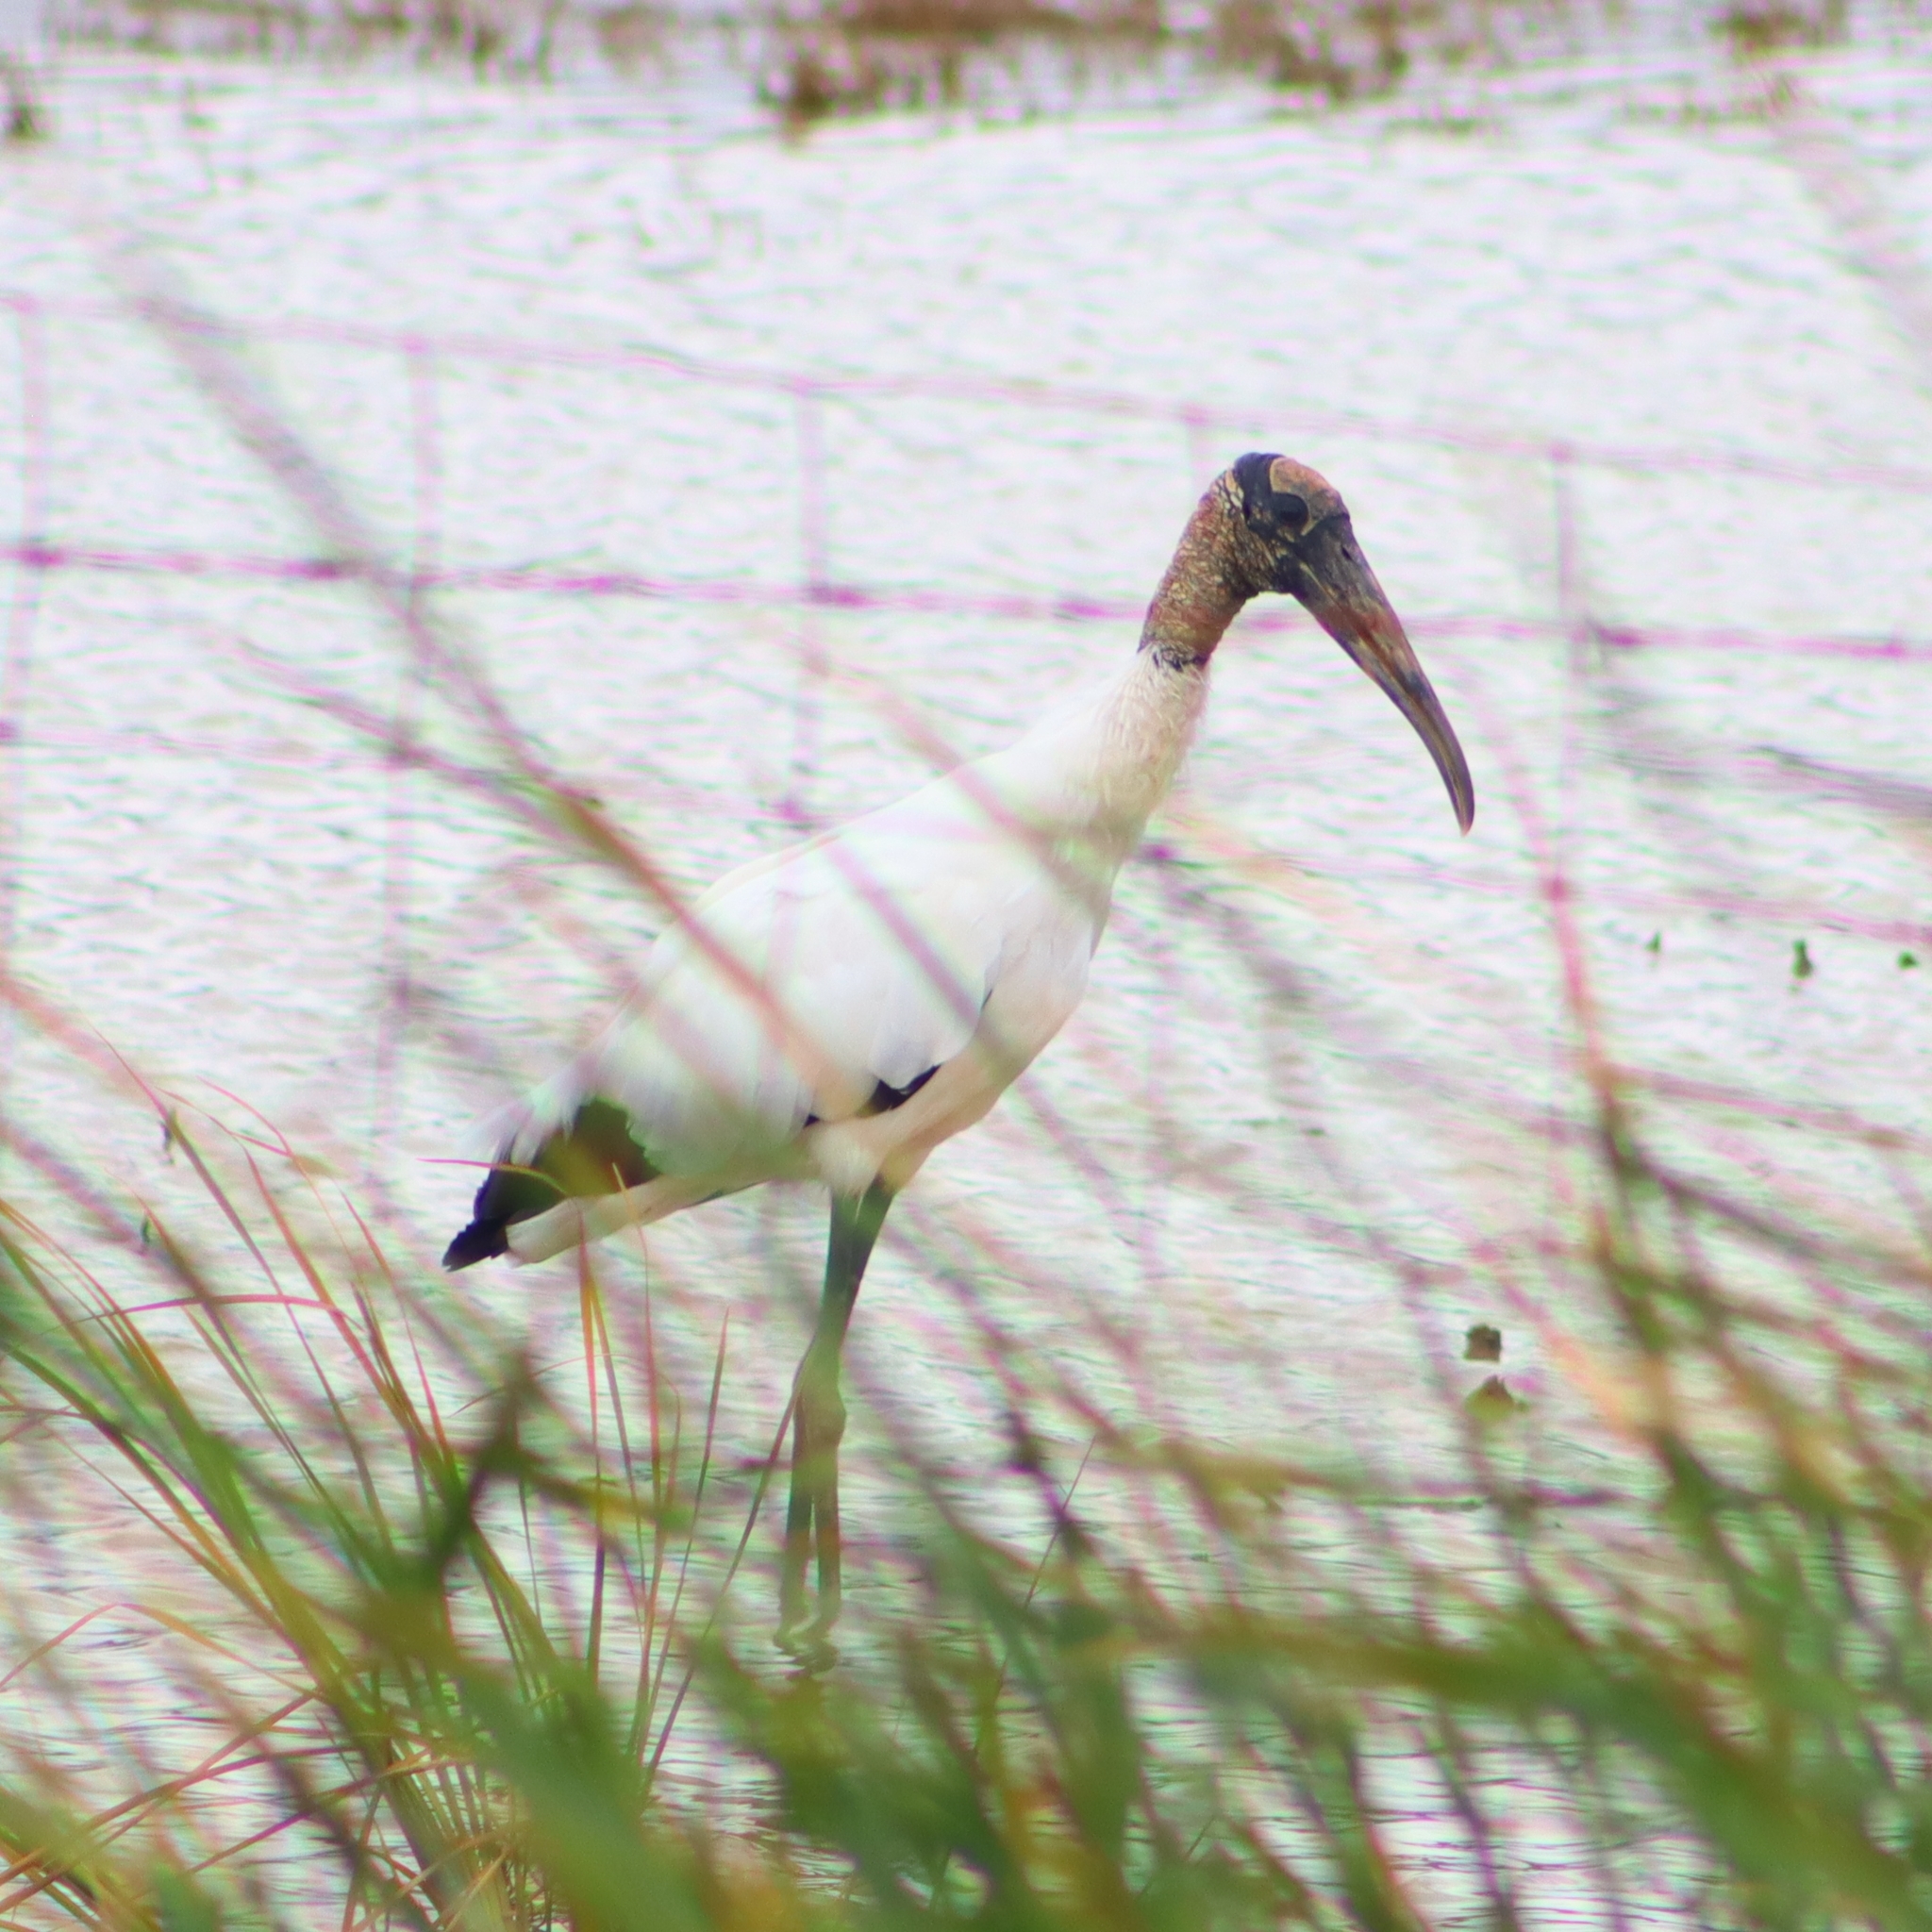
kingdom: Animalia
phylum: Chordata
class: Aves
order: Ciconiiformes
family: Ciconiidae
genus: Mycteria
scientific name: Mycteria americana
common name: Wood stork
